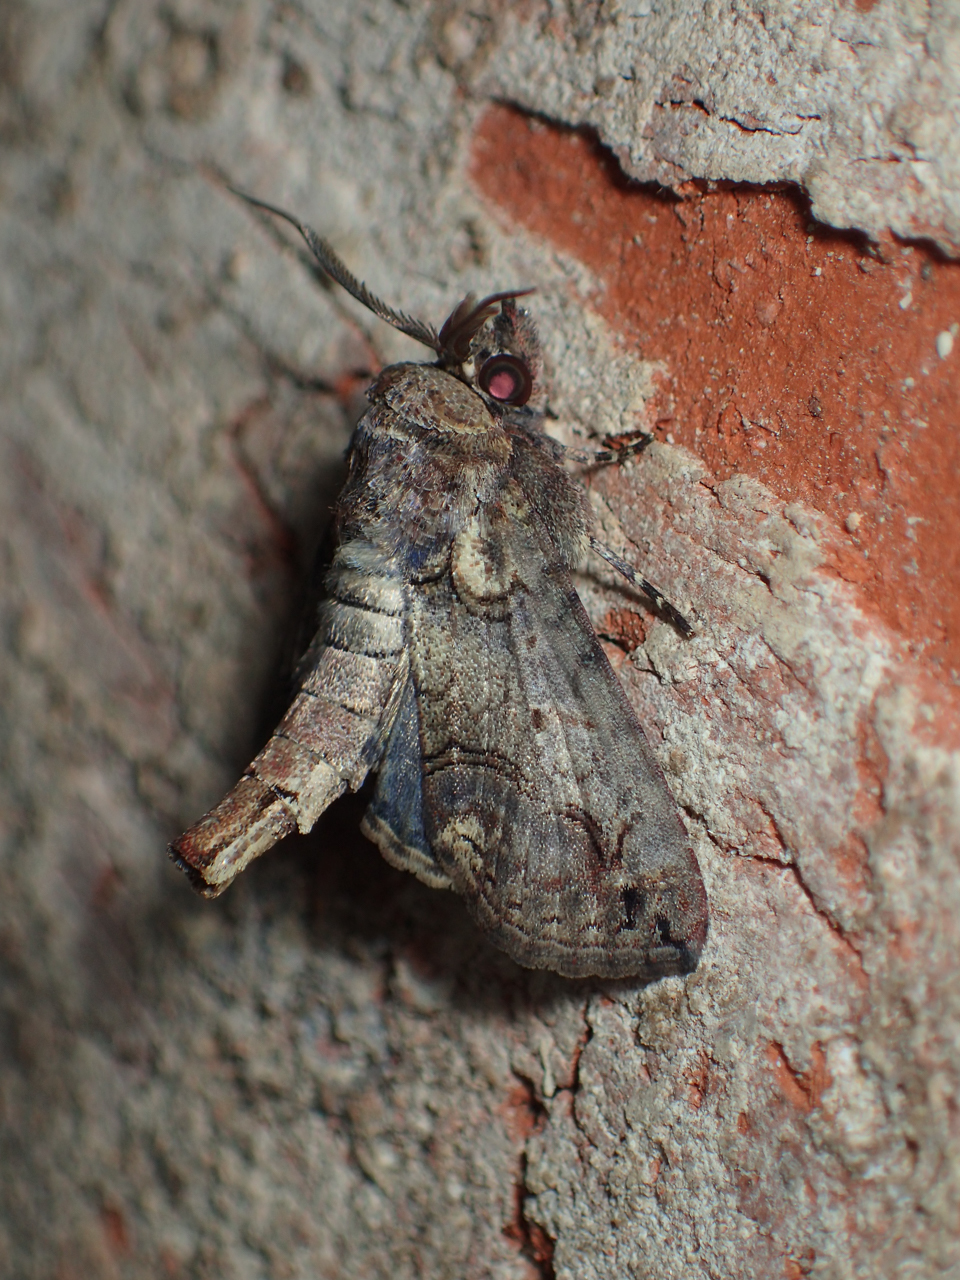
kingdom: Animalia
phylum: Arthropoda
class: Insecta
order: Lepidoptera
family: Euteliidae
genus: Paectes
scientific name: Paectes abrostoloides
